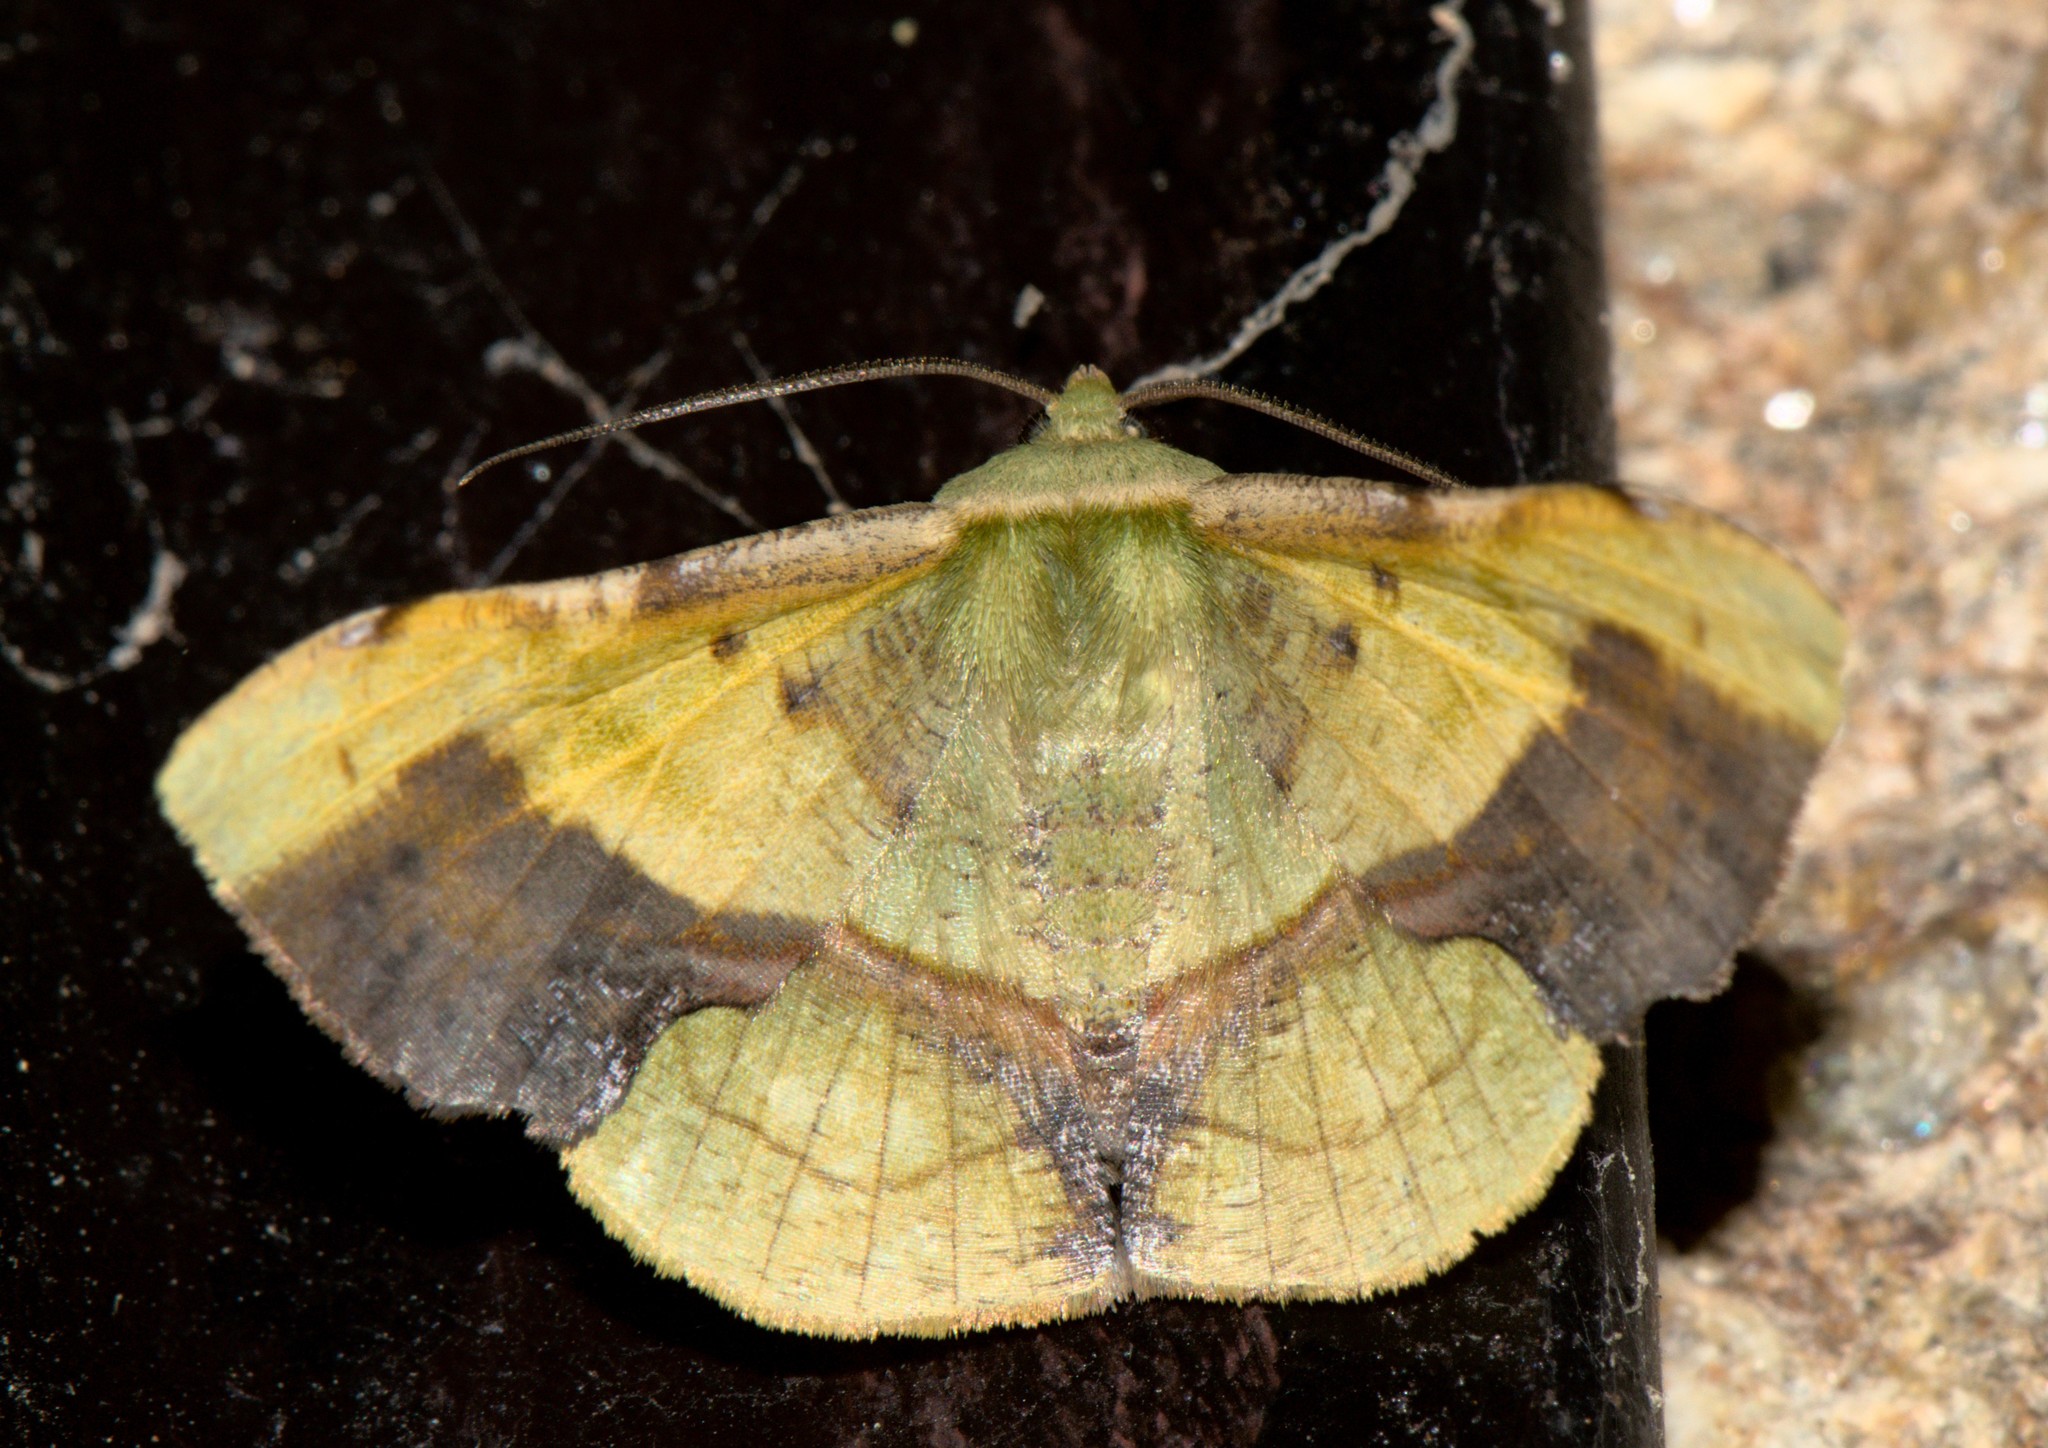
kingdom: Animalia
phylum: Arthropoda
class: Insecta
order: Lepidoptera
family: Geometridae
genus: Fascellina
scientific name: Fascellina plagiata
